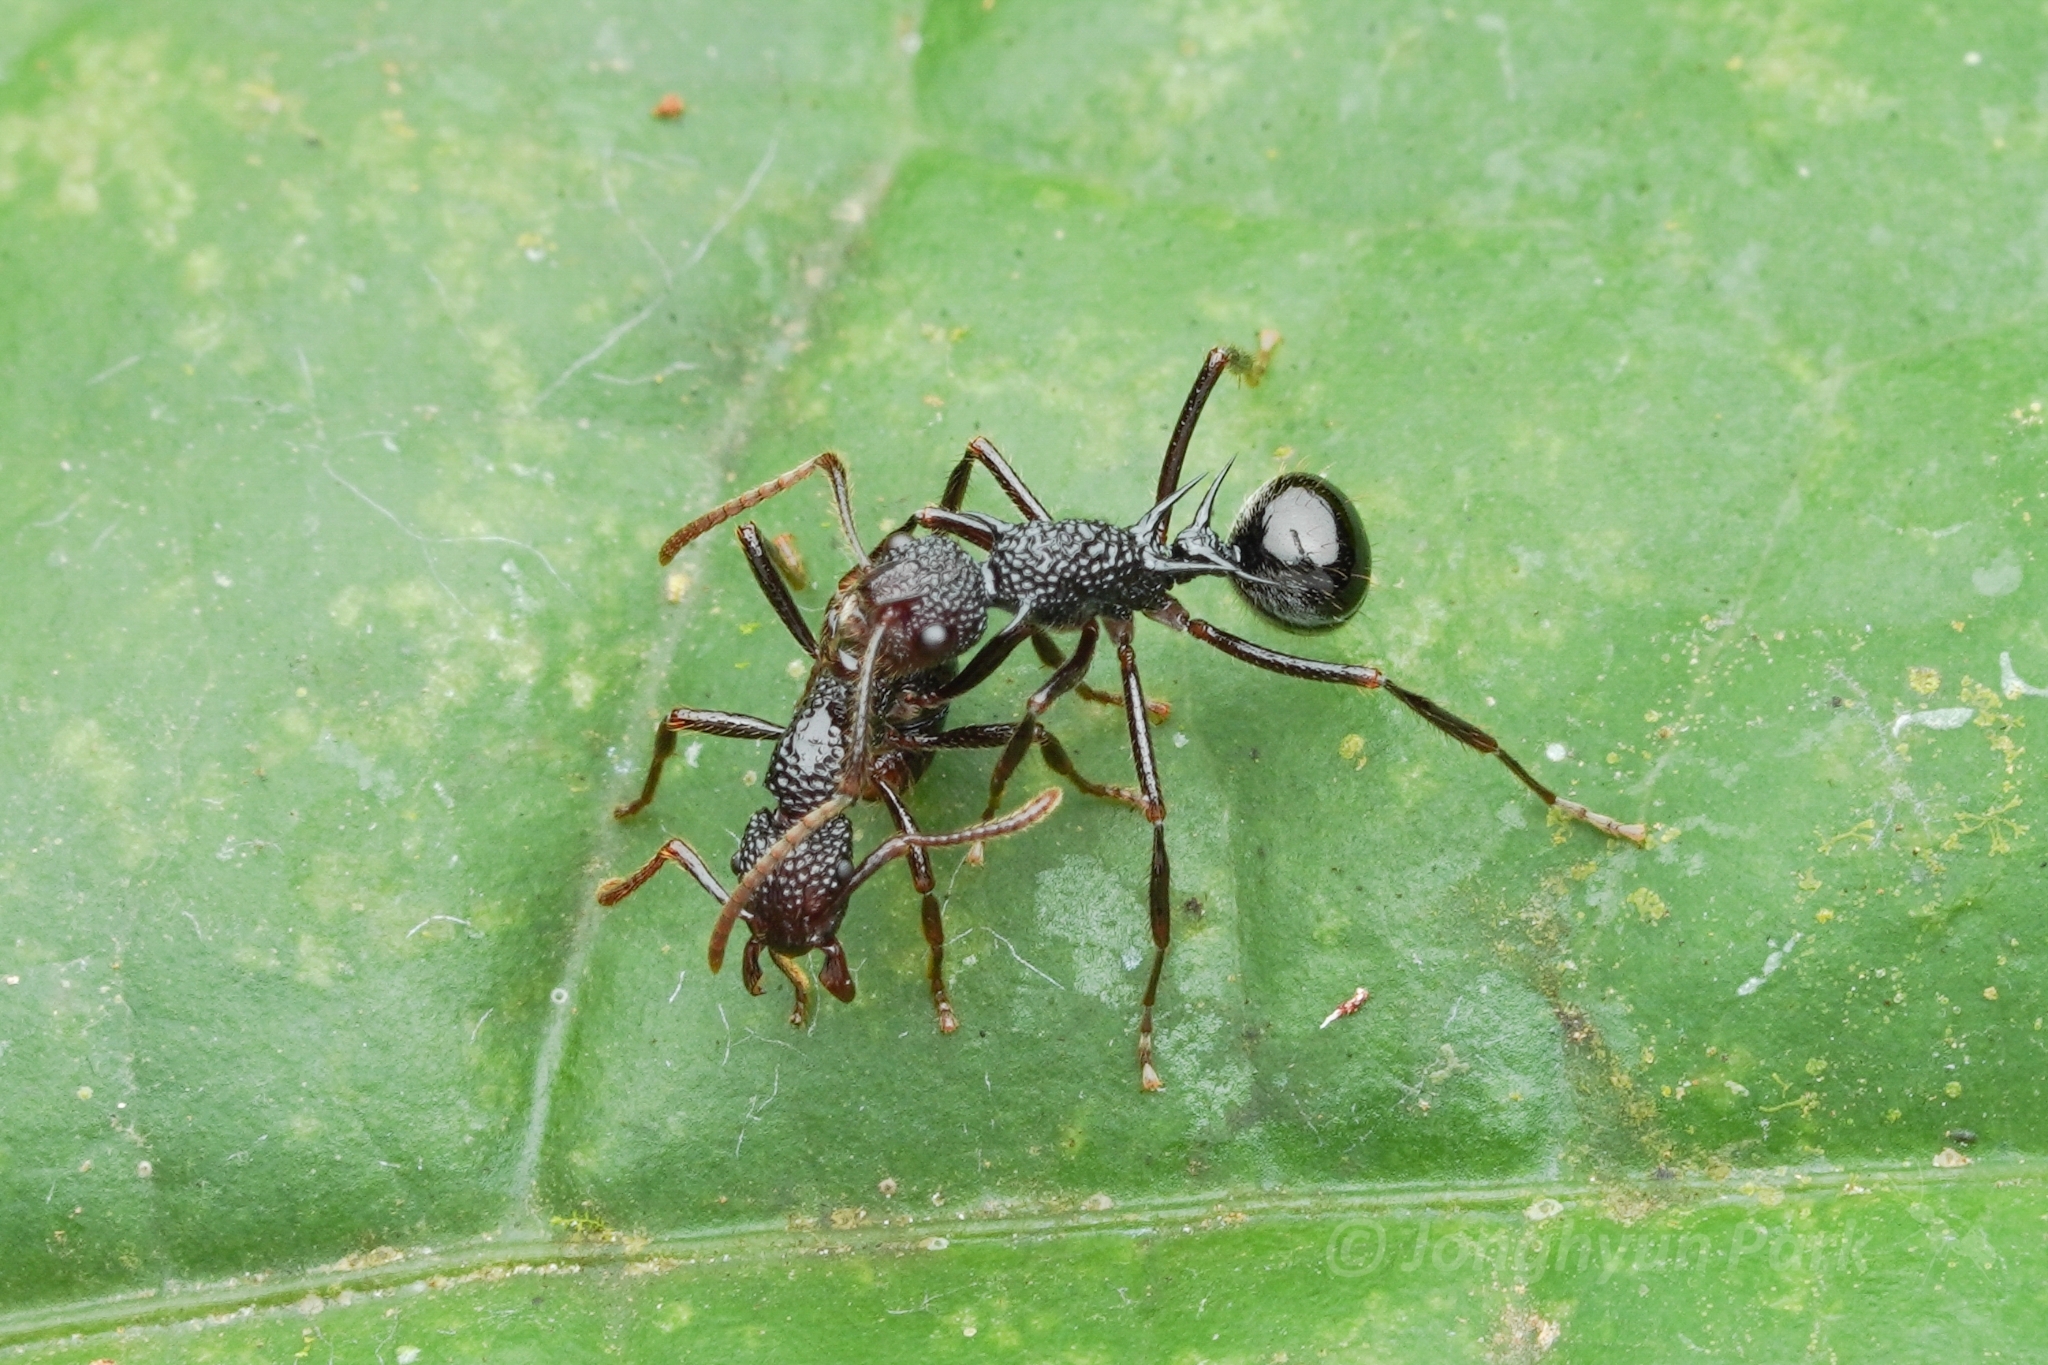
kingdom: Animalia
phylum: Arthropoda
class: Insecta
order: Hymenoptera
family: Formicidae
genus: Stictoponera
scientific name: Stictoponera
